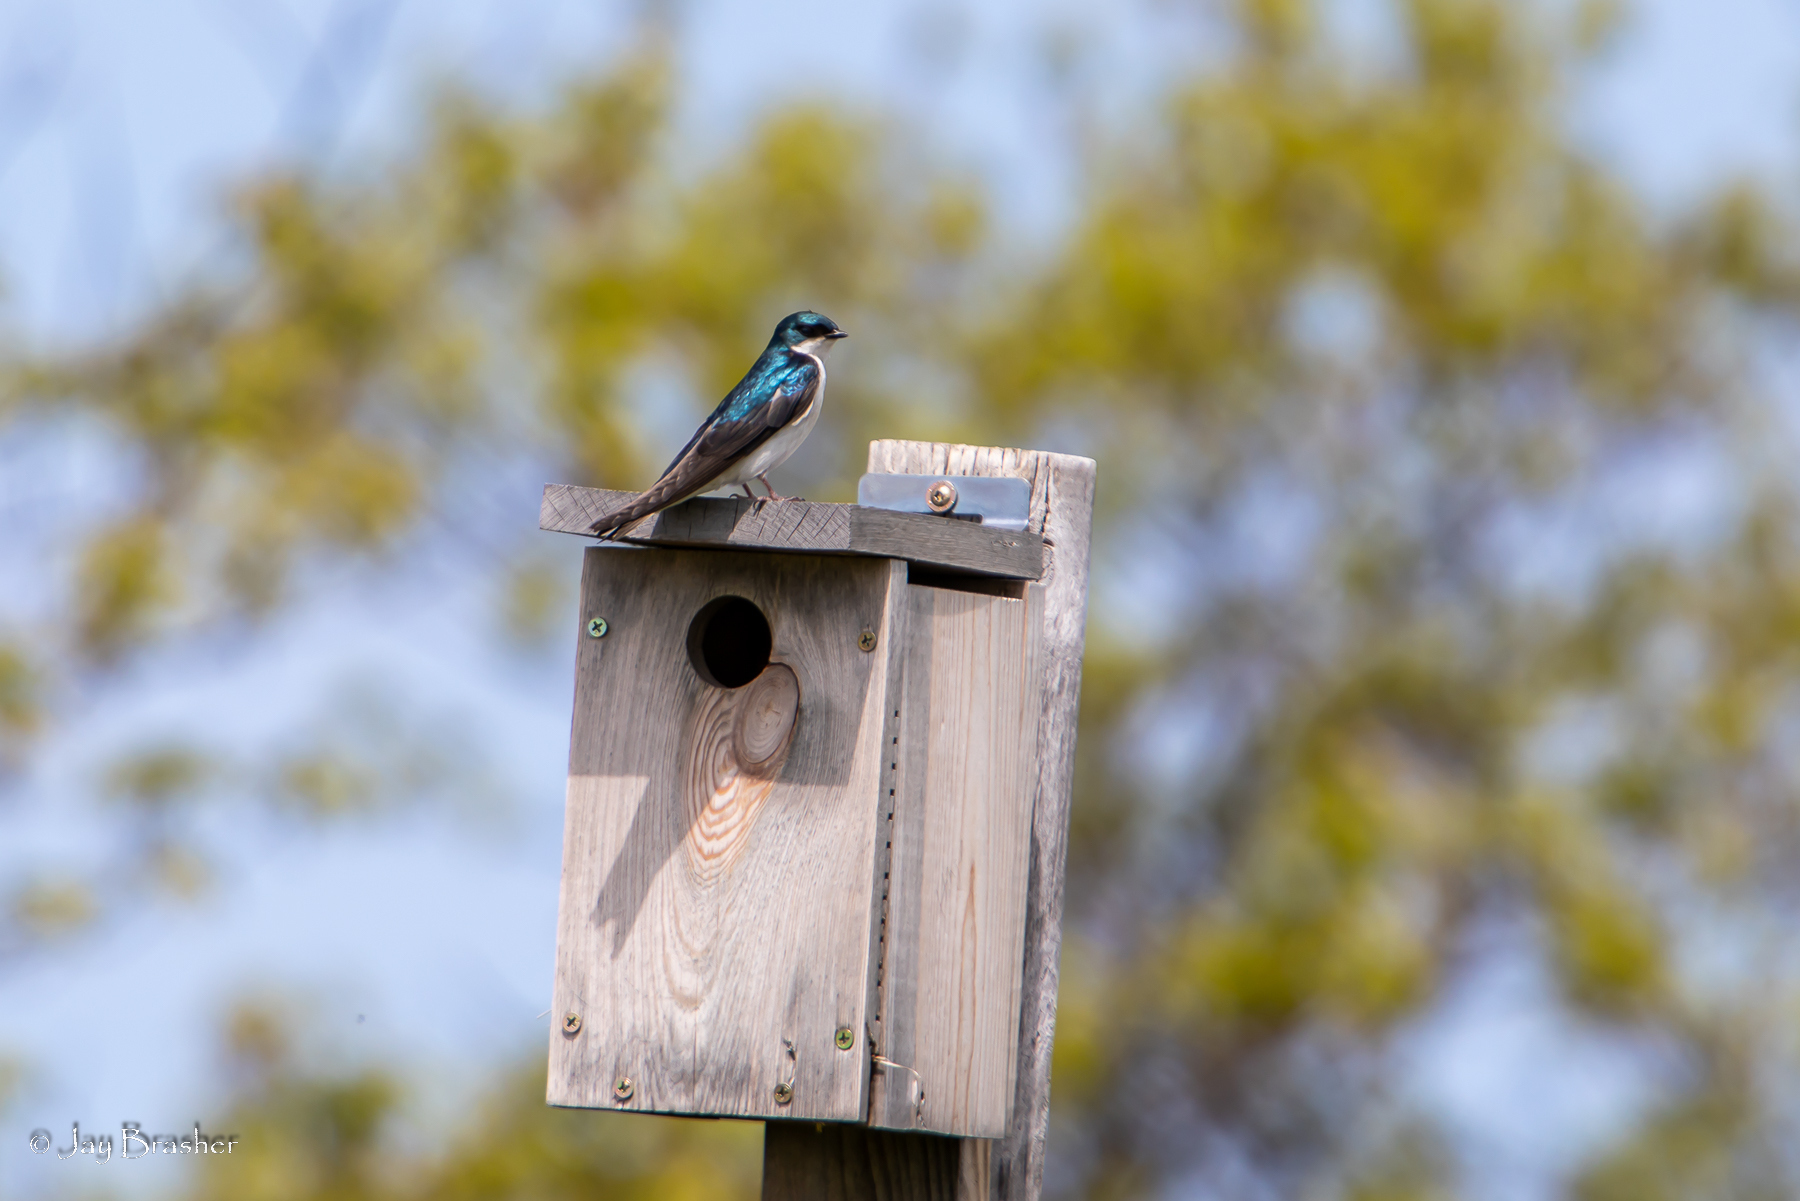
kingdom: Animalia
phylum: Chordata
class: Aves
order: Passeriformes
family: Hirundinidae
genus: Tachycineta
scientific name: Tachycineta bicolor
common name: Tree swallow
